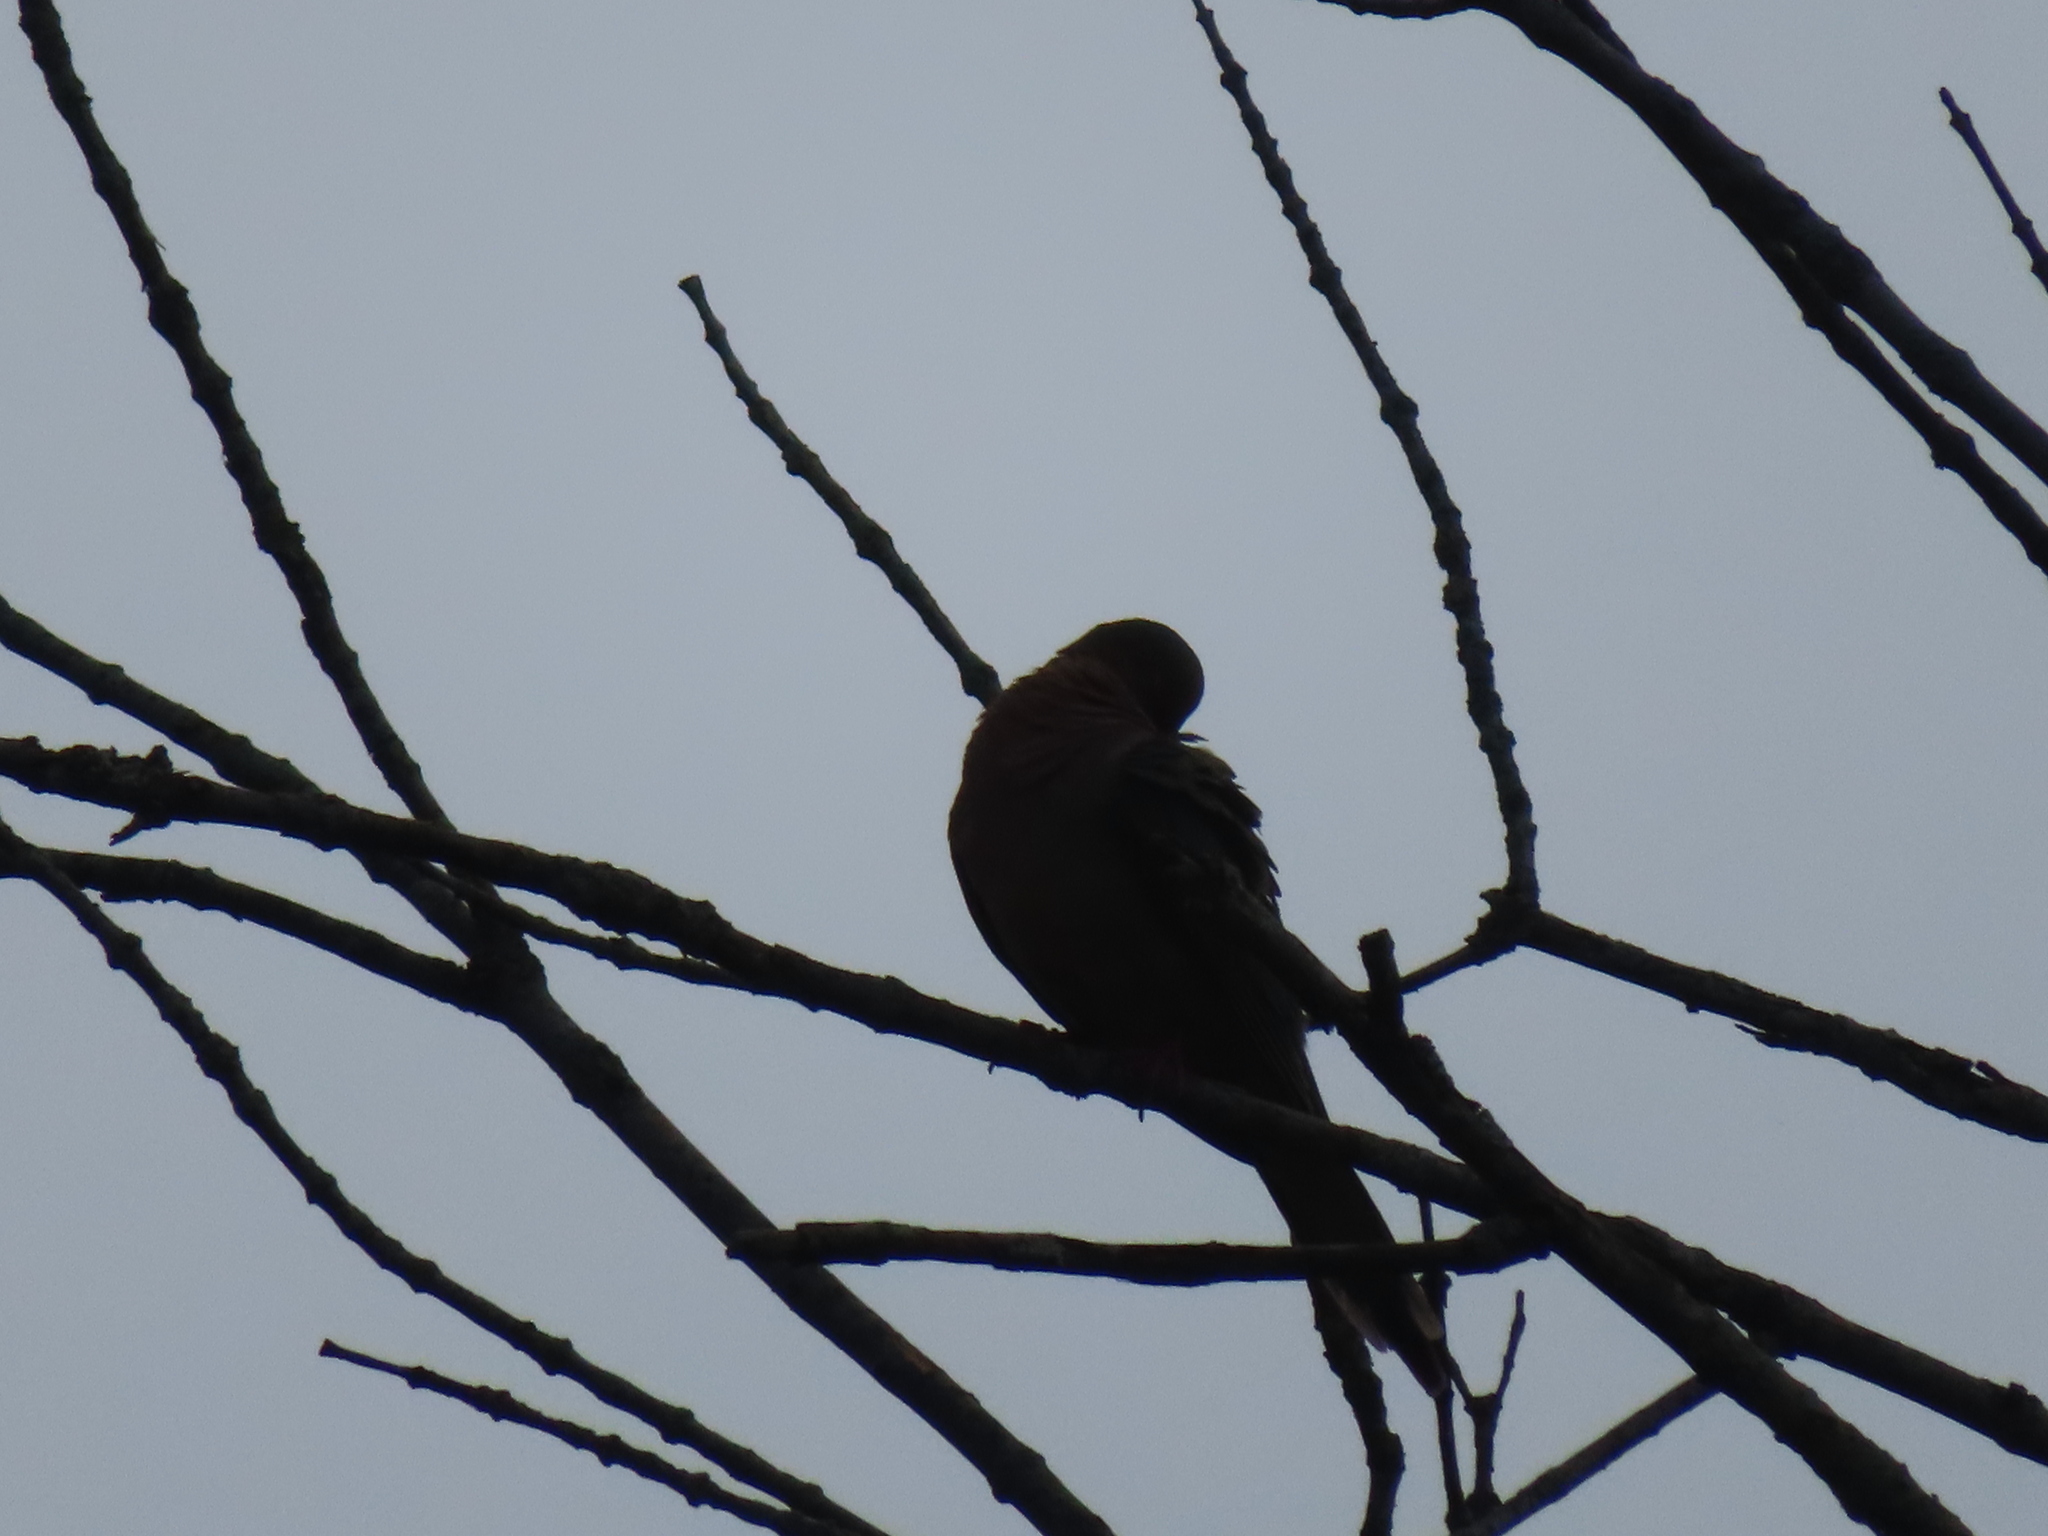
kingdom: Animalia
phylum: Chordata
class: Aves
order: Columbiformes
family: Columbidae
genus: Zenaida
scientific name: Zenaida macroura
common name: Mourning dove
